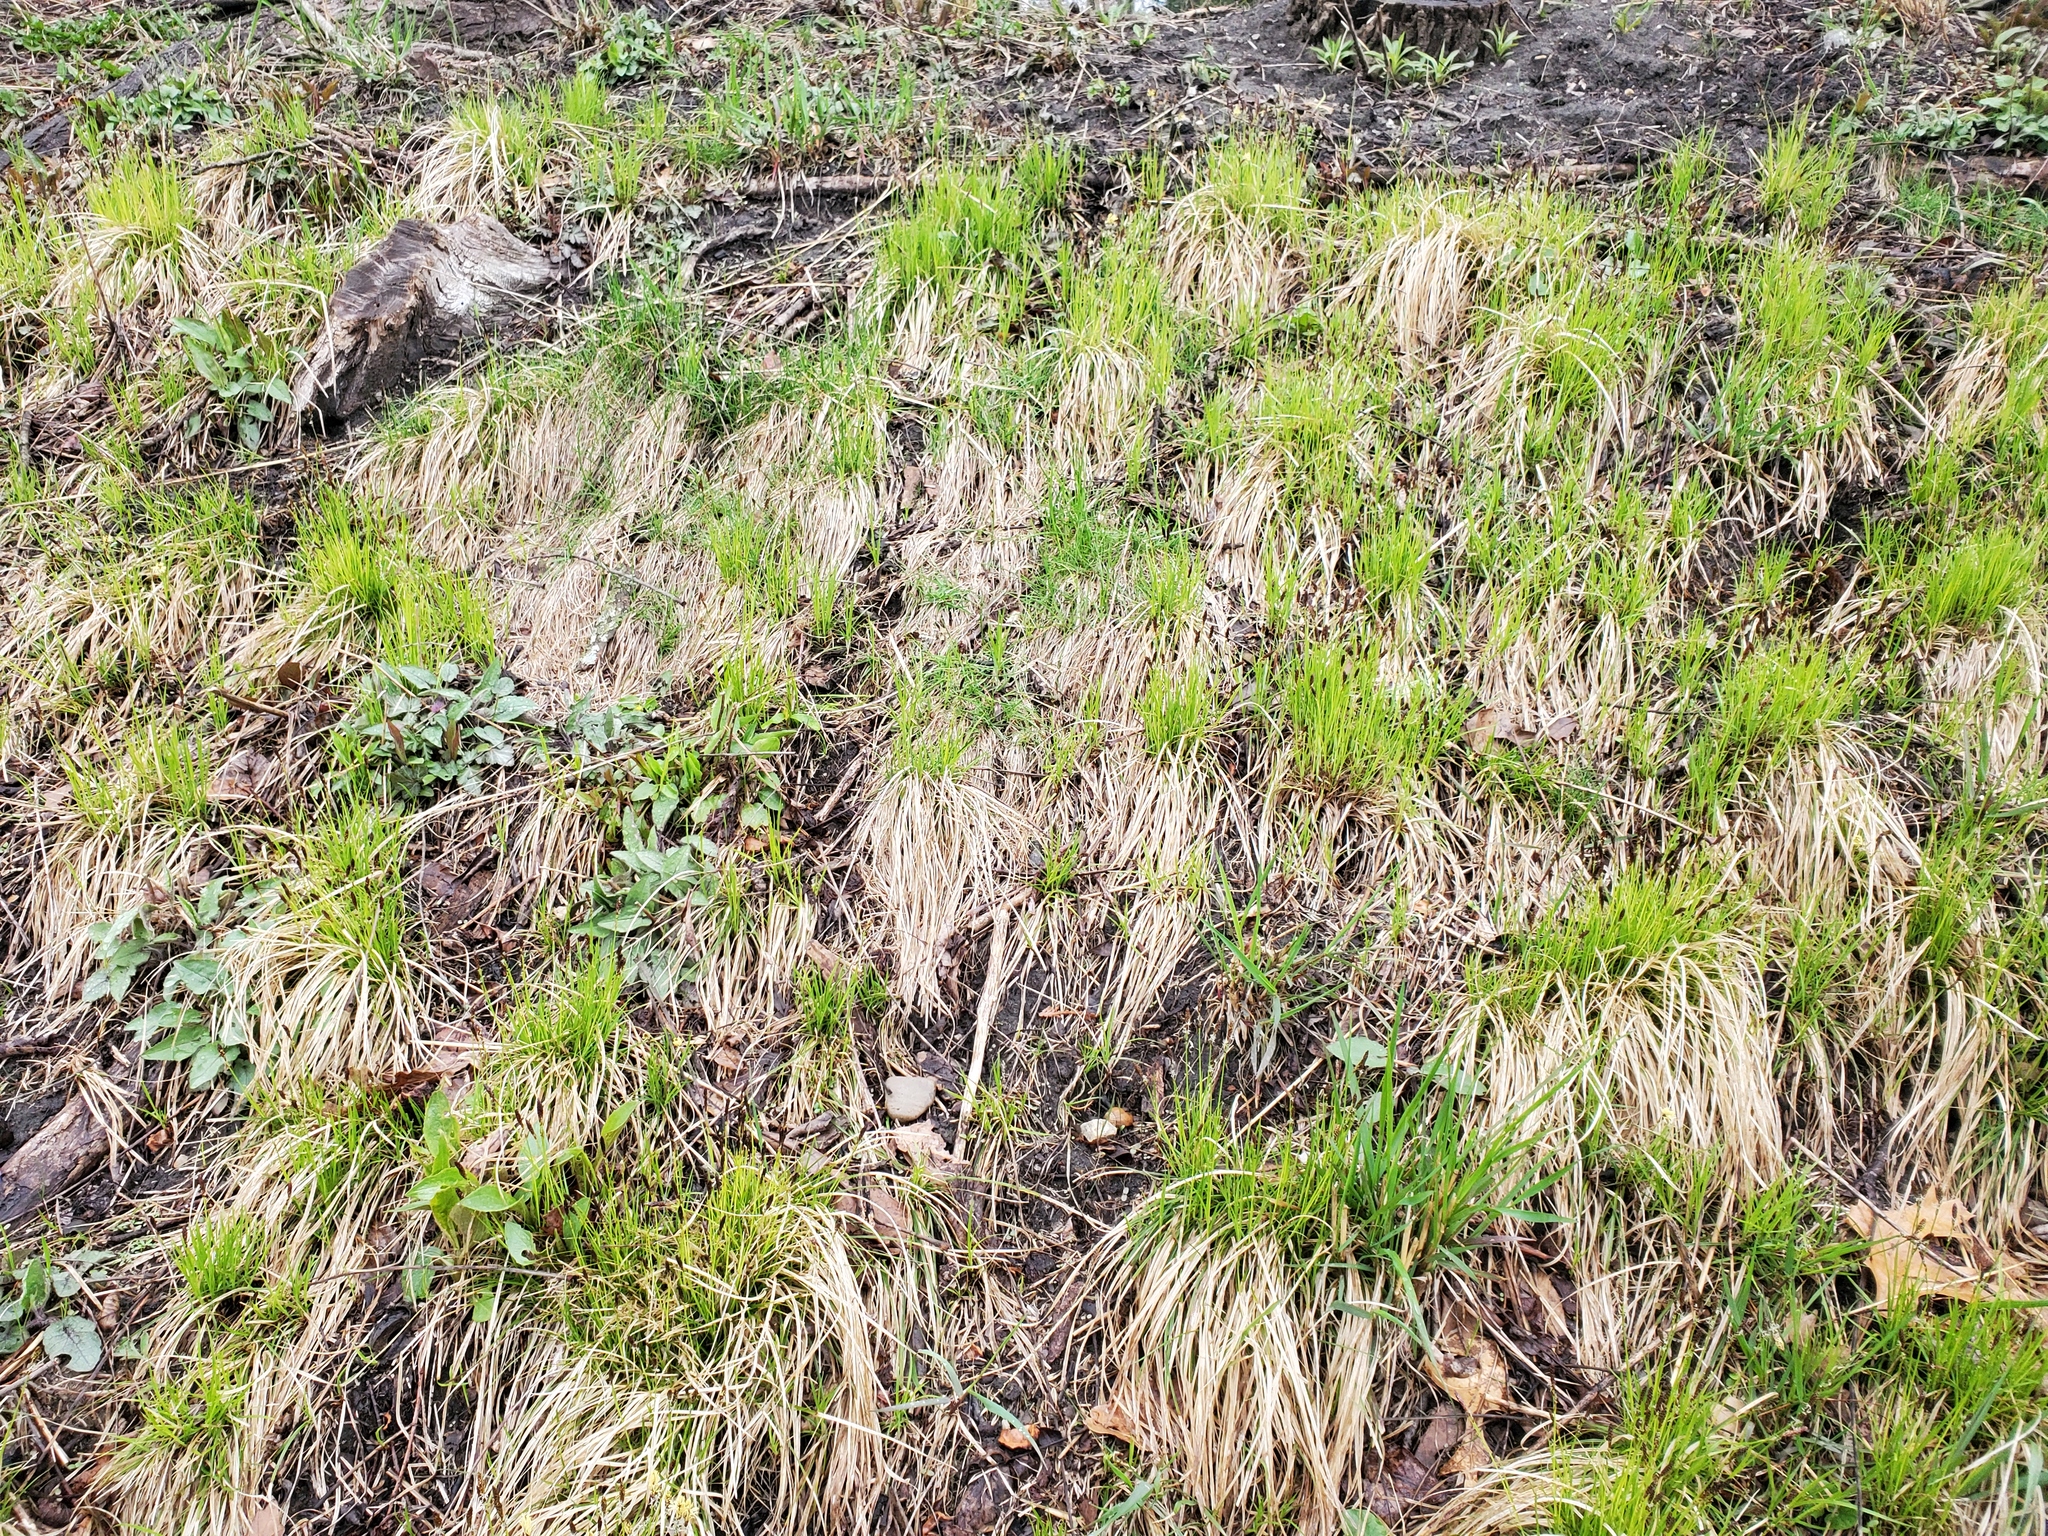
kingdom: Plantae
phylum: Tracheophyta
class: Liliopsida
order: Poales
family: Cyperaceae
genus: Carex
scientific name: Carex pensylvanica
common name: Common oak sedge
